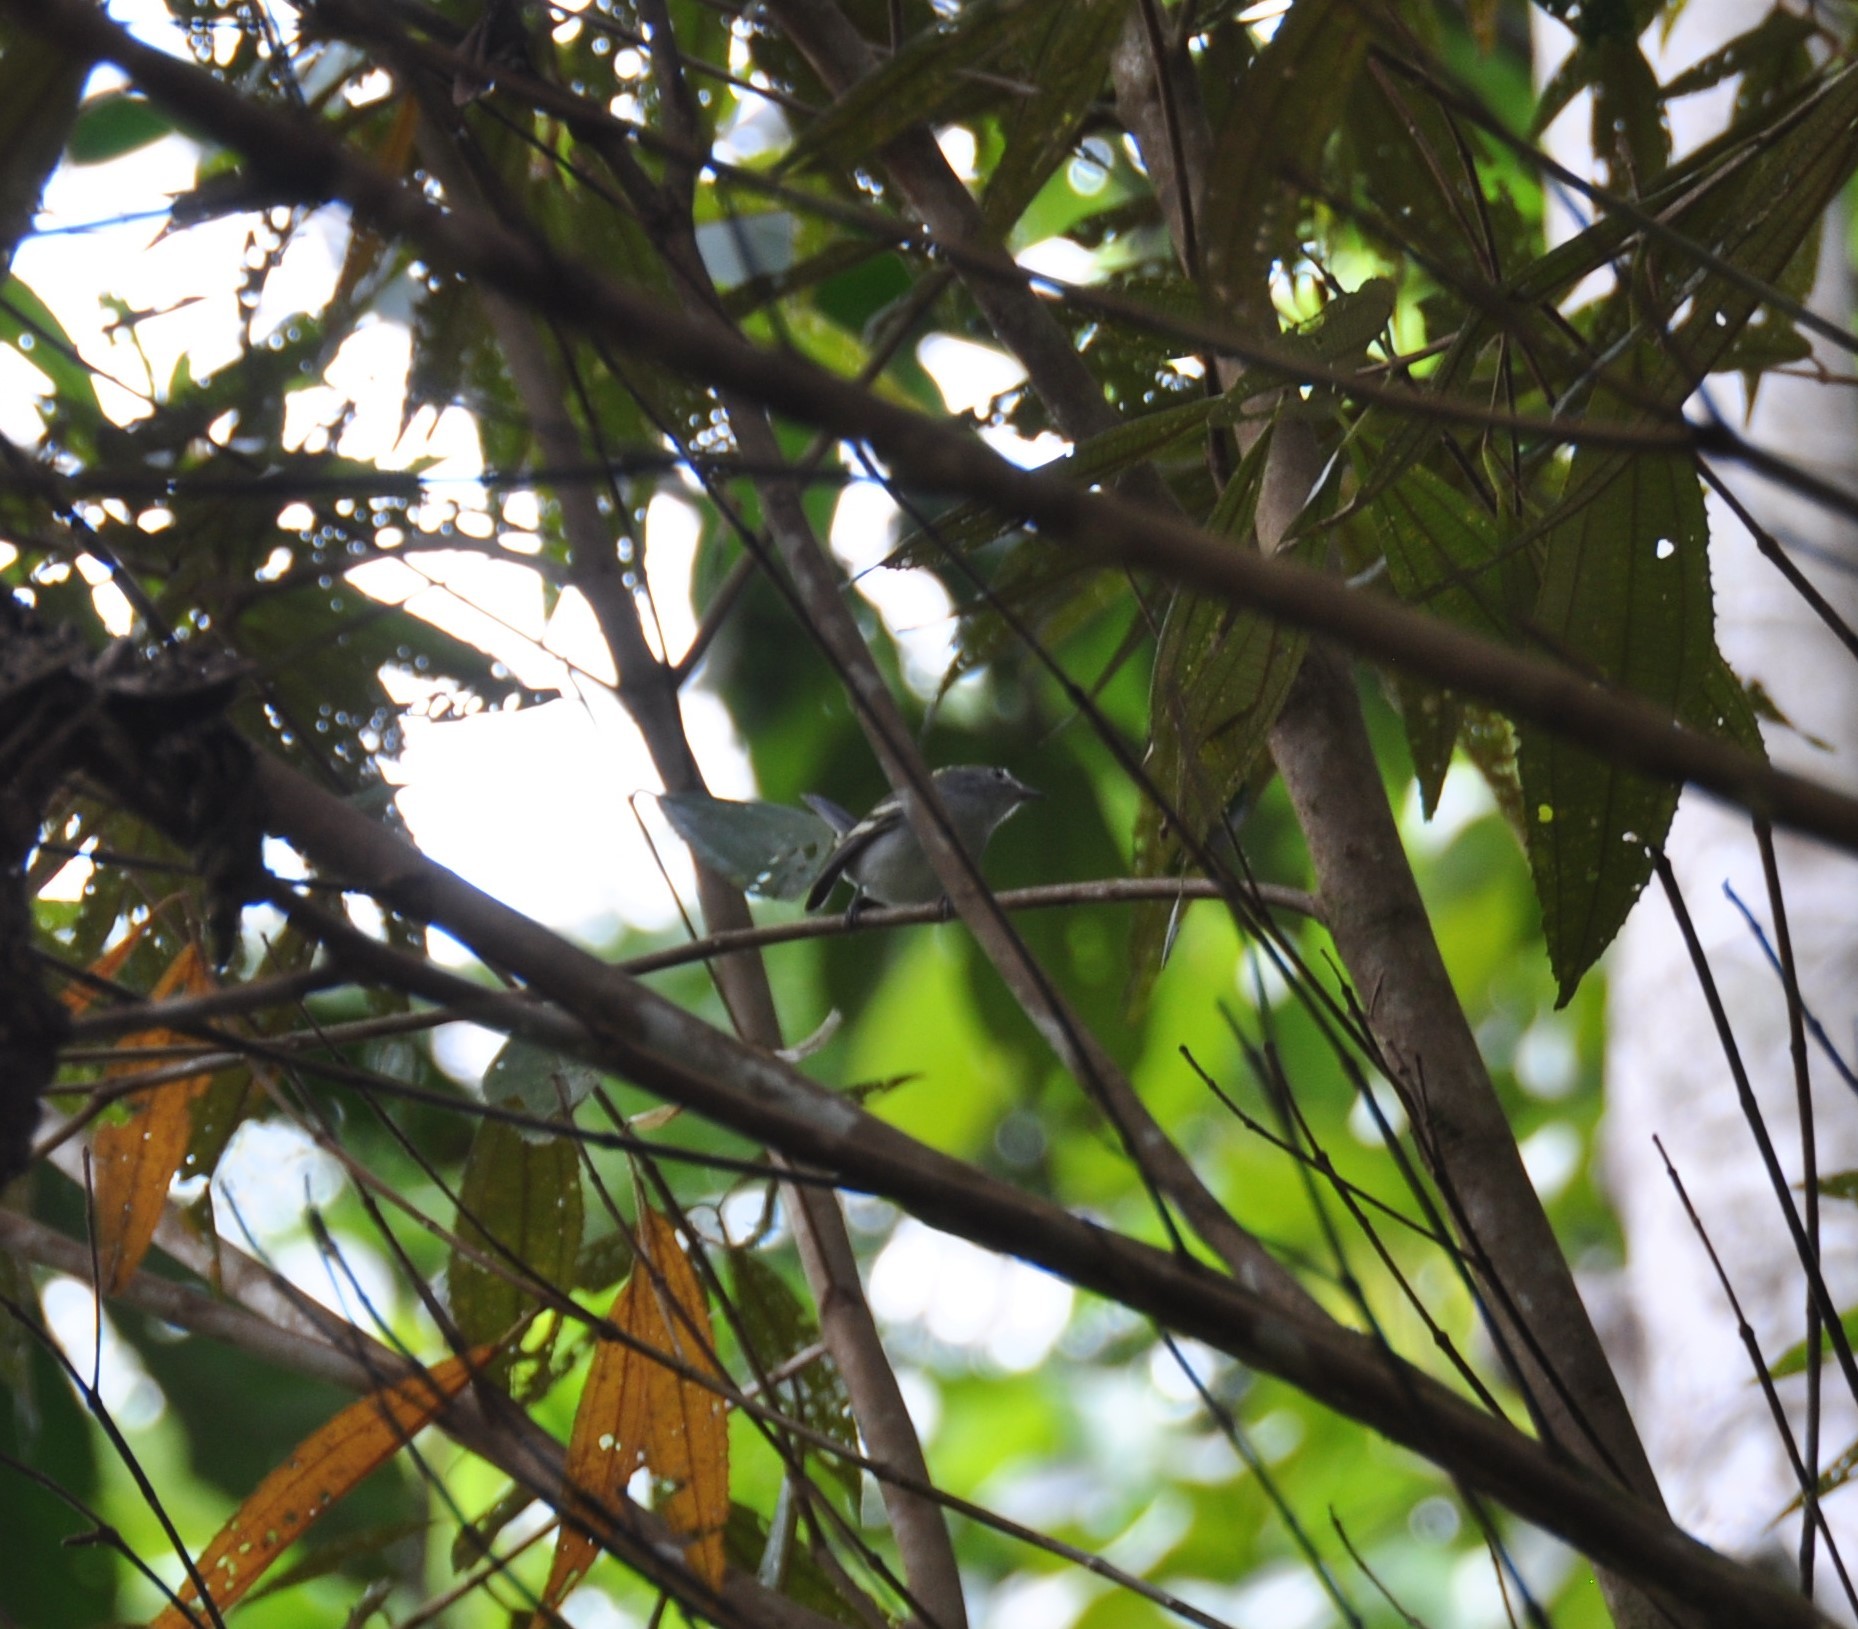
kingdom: Animalia
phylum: Chordata
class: Aves
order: Passeriformes
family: Parulidae
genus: Setophaga
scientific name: Setophaga pensylvanica
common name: Chestnut-sided warbler
